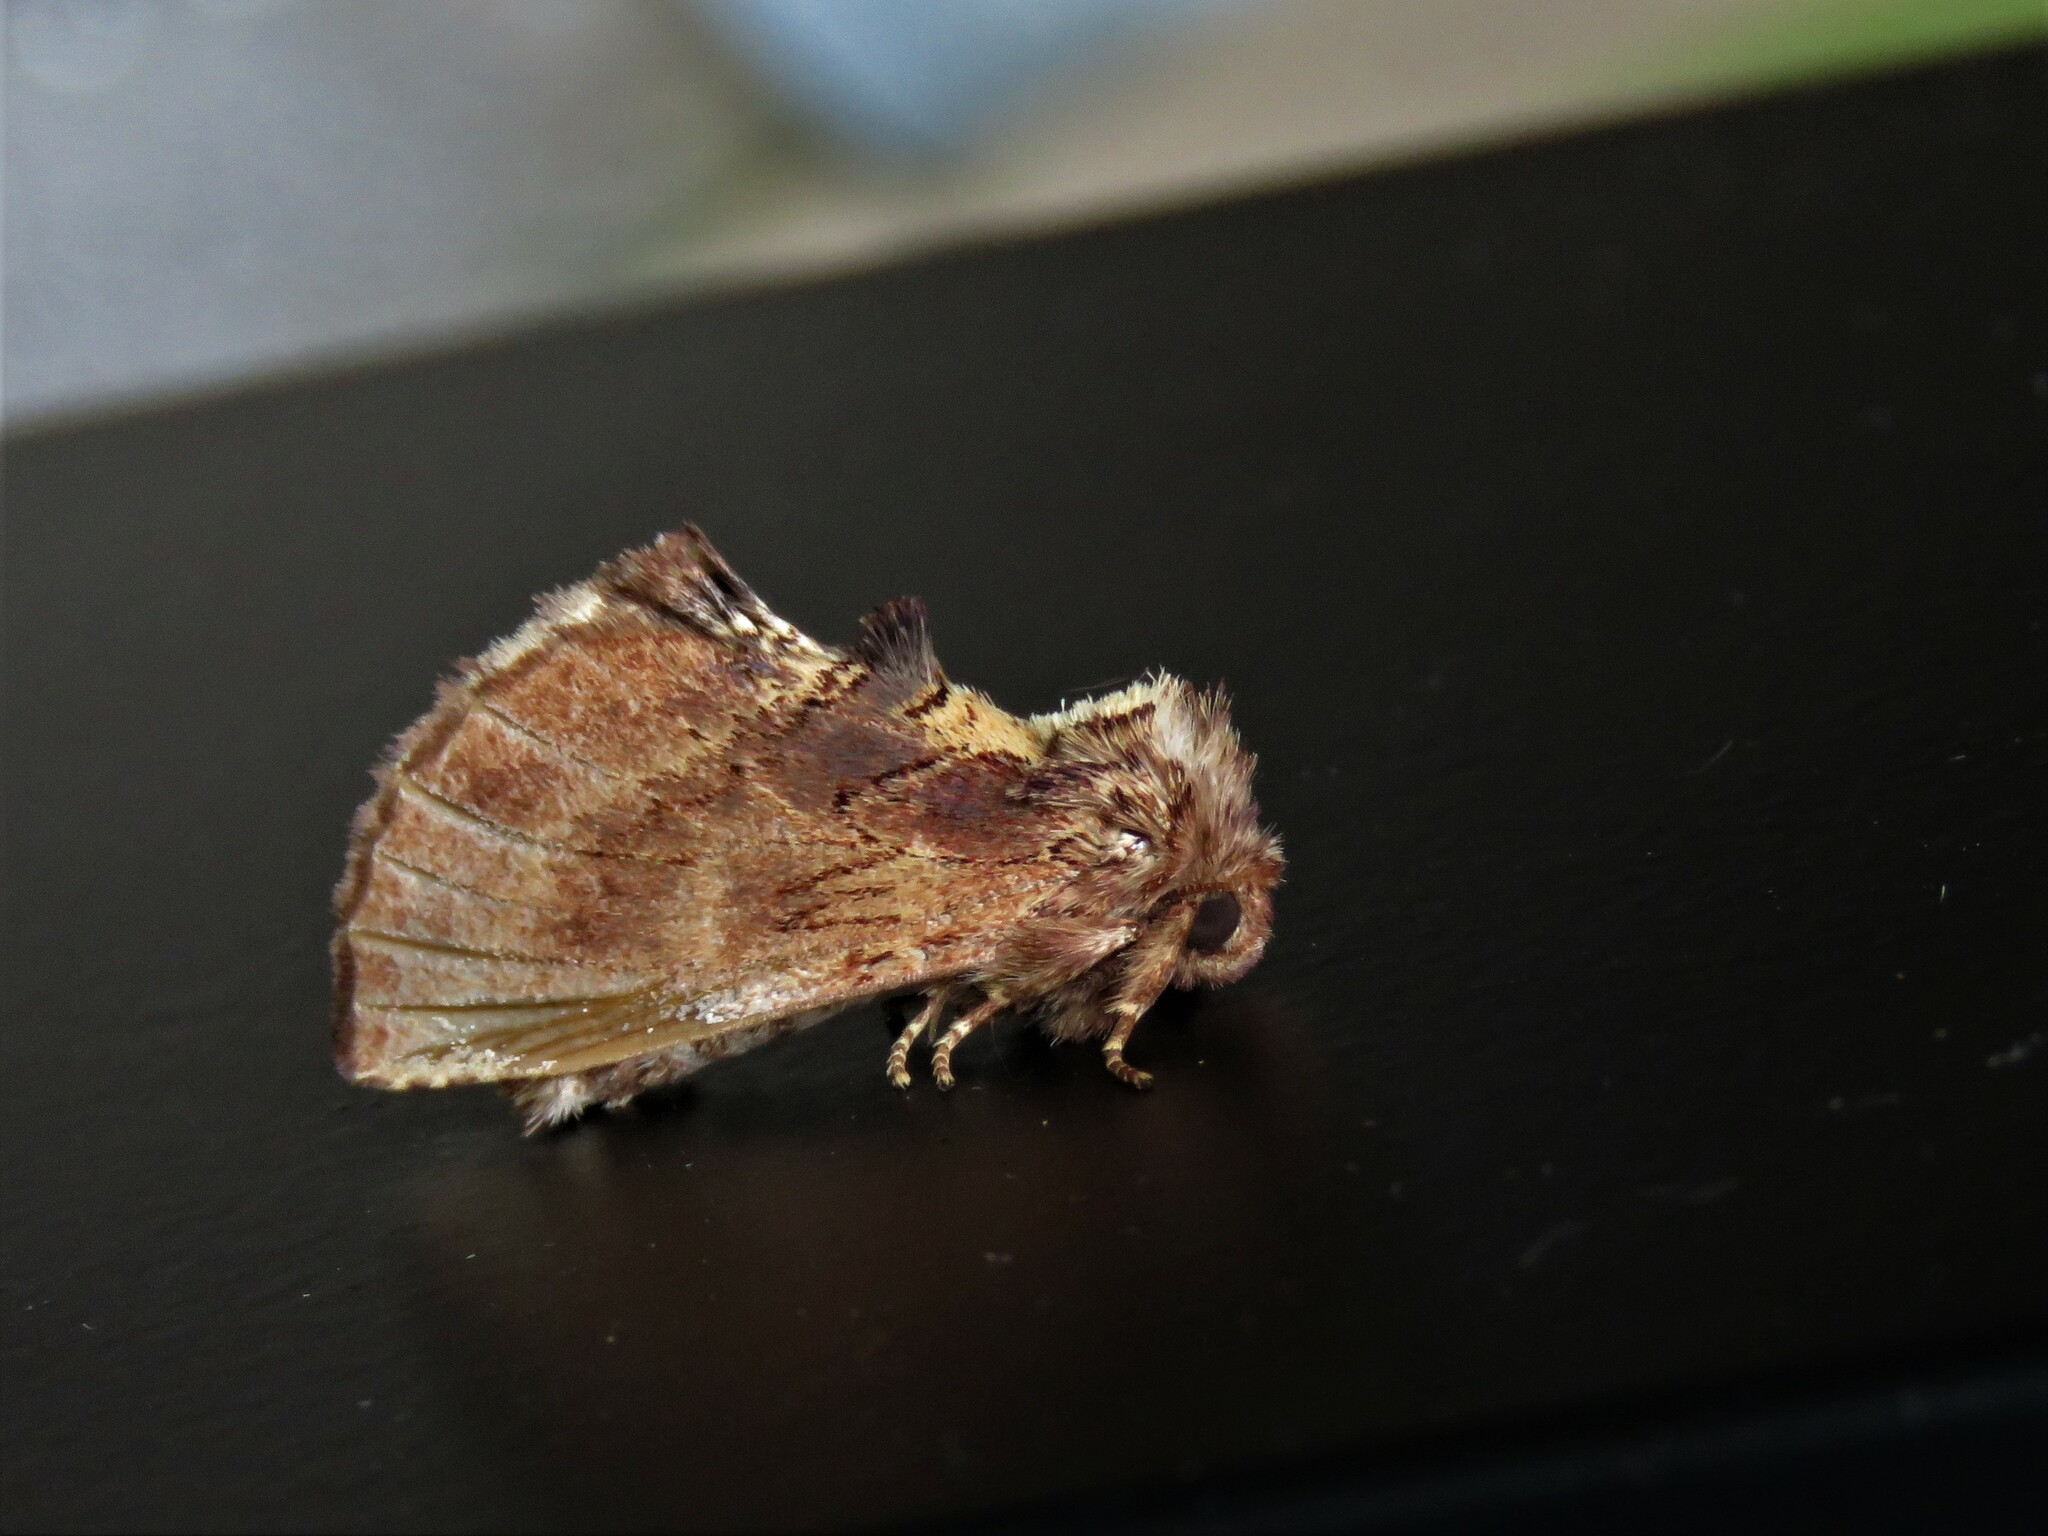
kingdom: Animalia
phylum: Arthropoda
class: Insecta
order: Lepidoptera
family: Notodontidae
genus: Ptilodon
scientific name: Ptilodon capucina
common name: Coxcomb prominent
